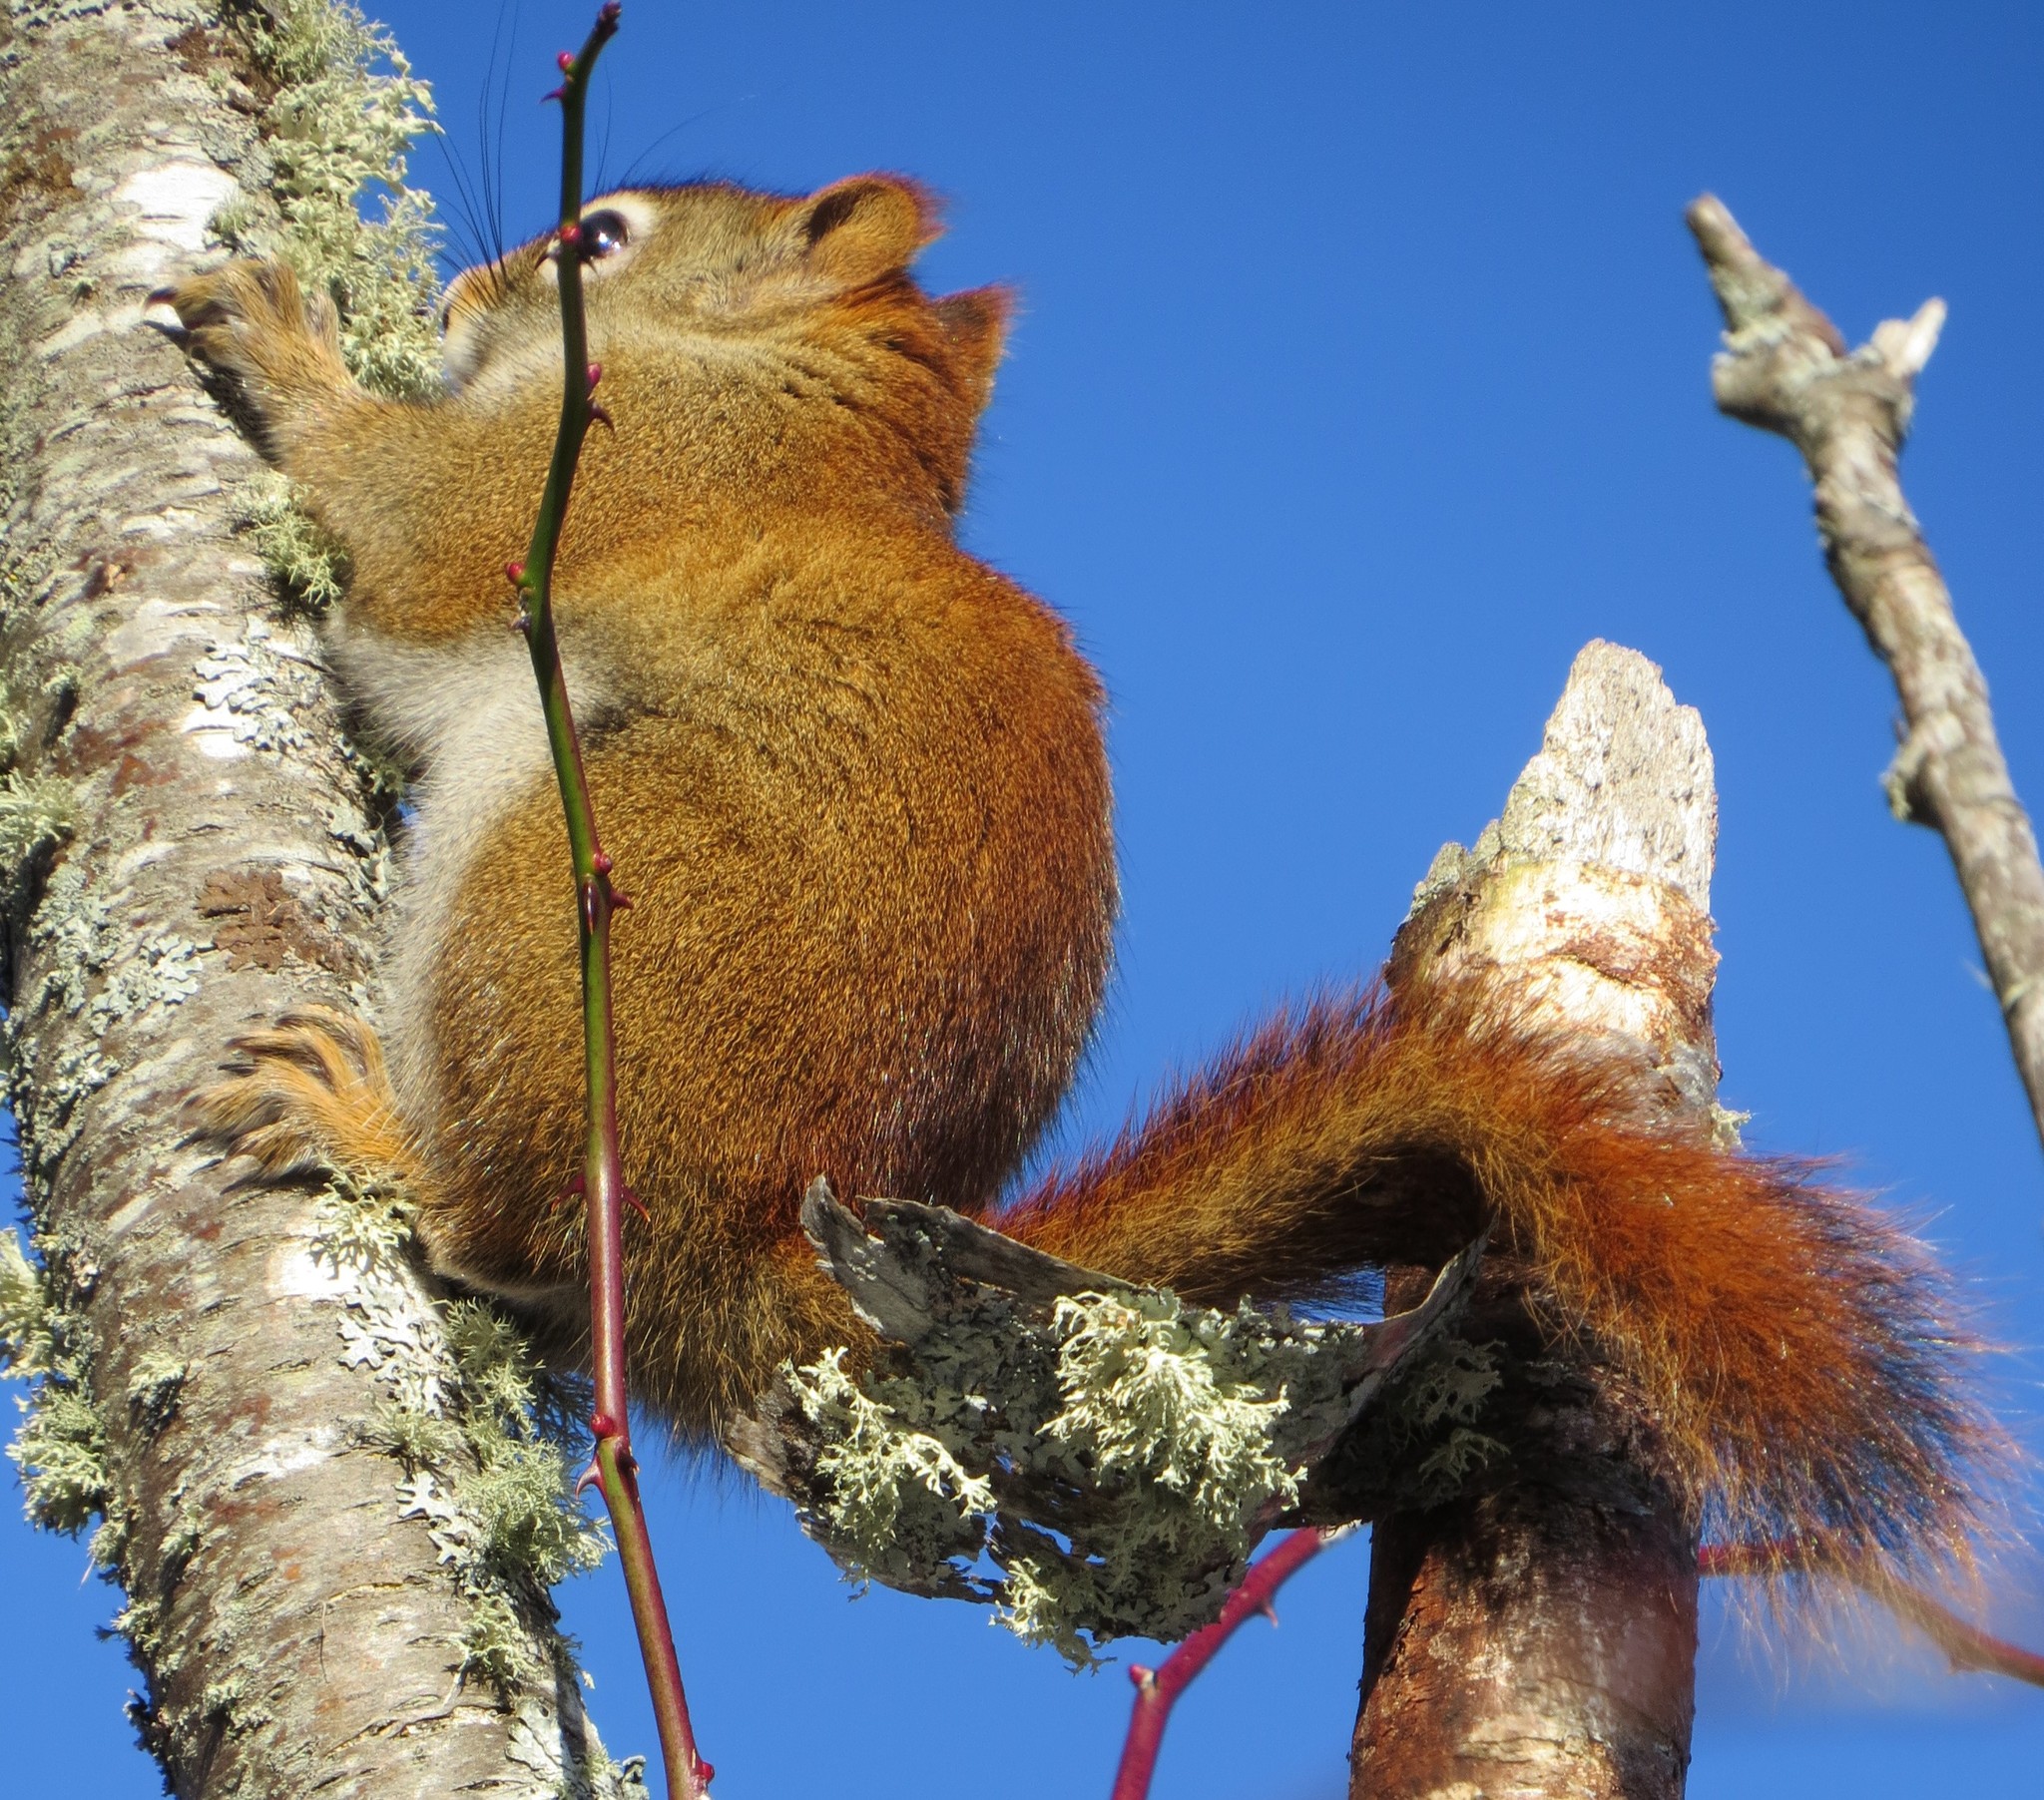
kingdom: Animalia
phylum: Chordata
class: Mammalia
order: Rodentia
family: Sciuridae
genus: Tamiasciurus
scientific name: Tamiasciurus hudsonicus
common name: Red squirrel
